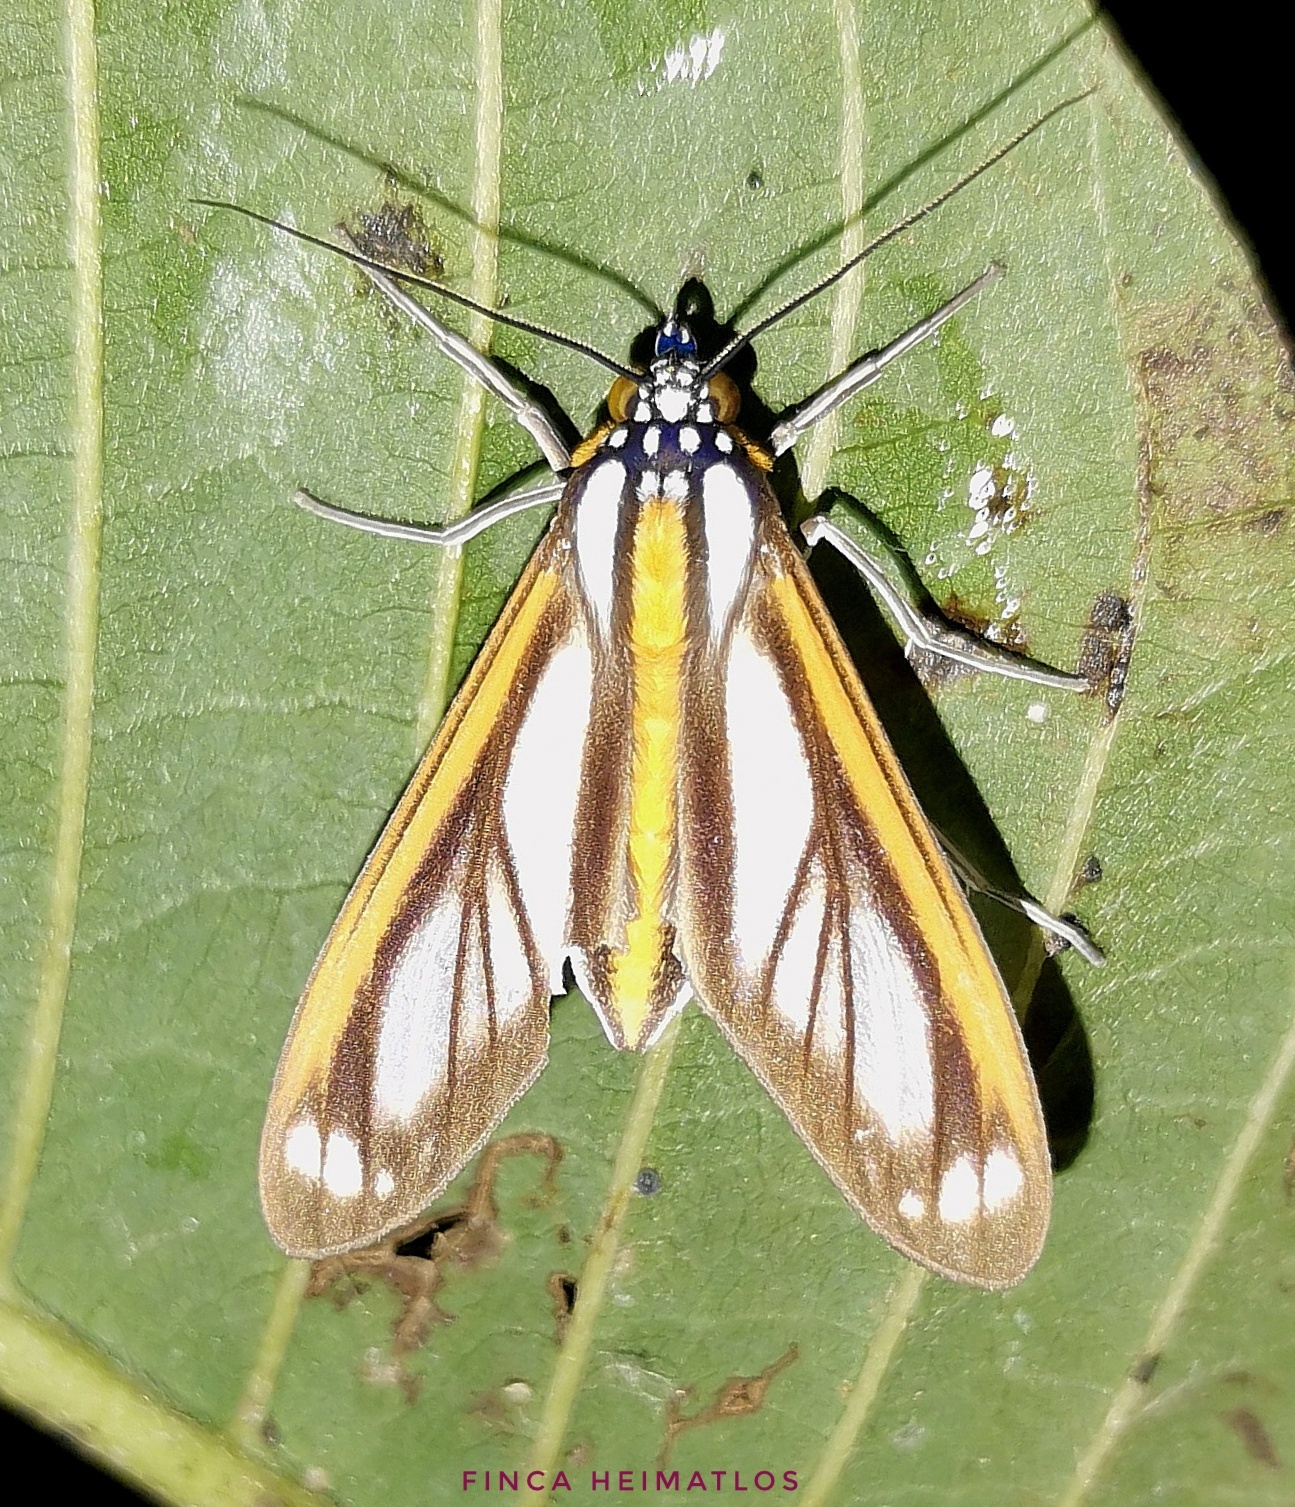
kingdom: Animalia
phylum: Arthropoda
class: Insecta
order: Lepidoptera
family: Erebidae
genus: Robinsonia
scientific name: Robinsonia rockstonia
